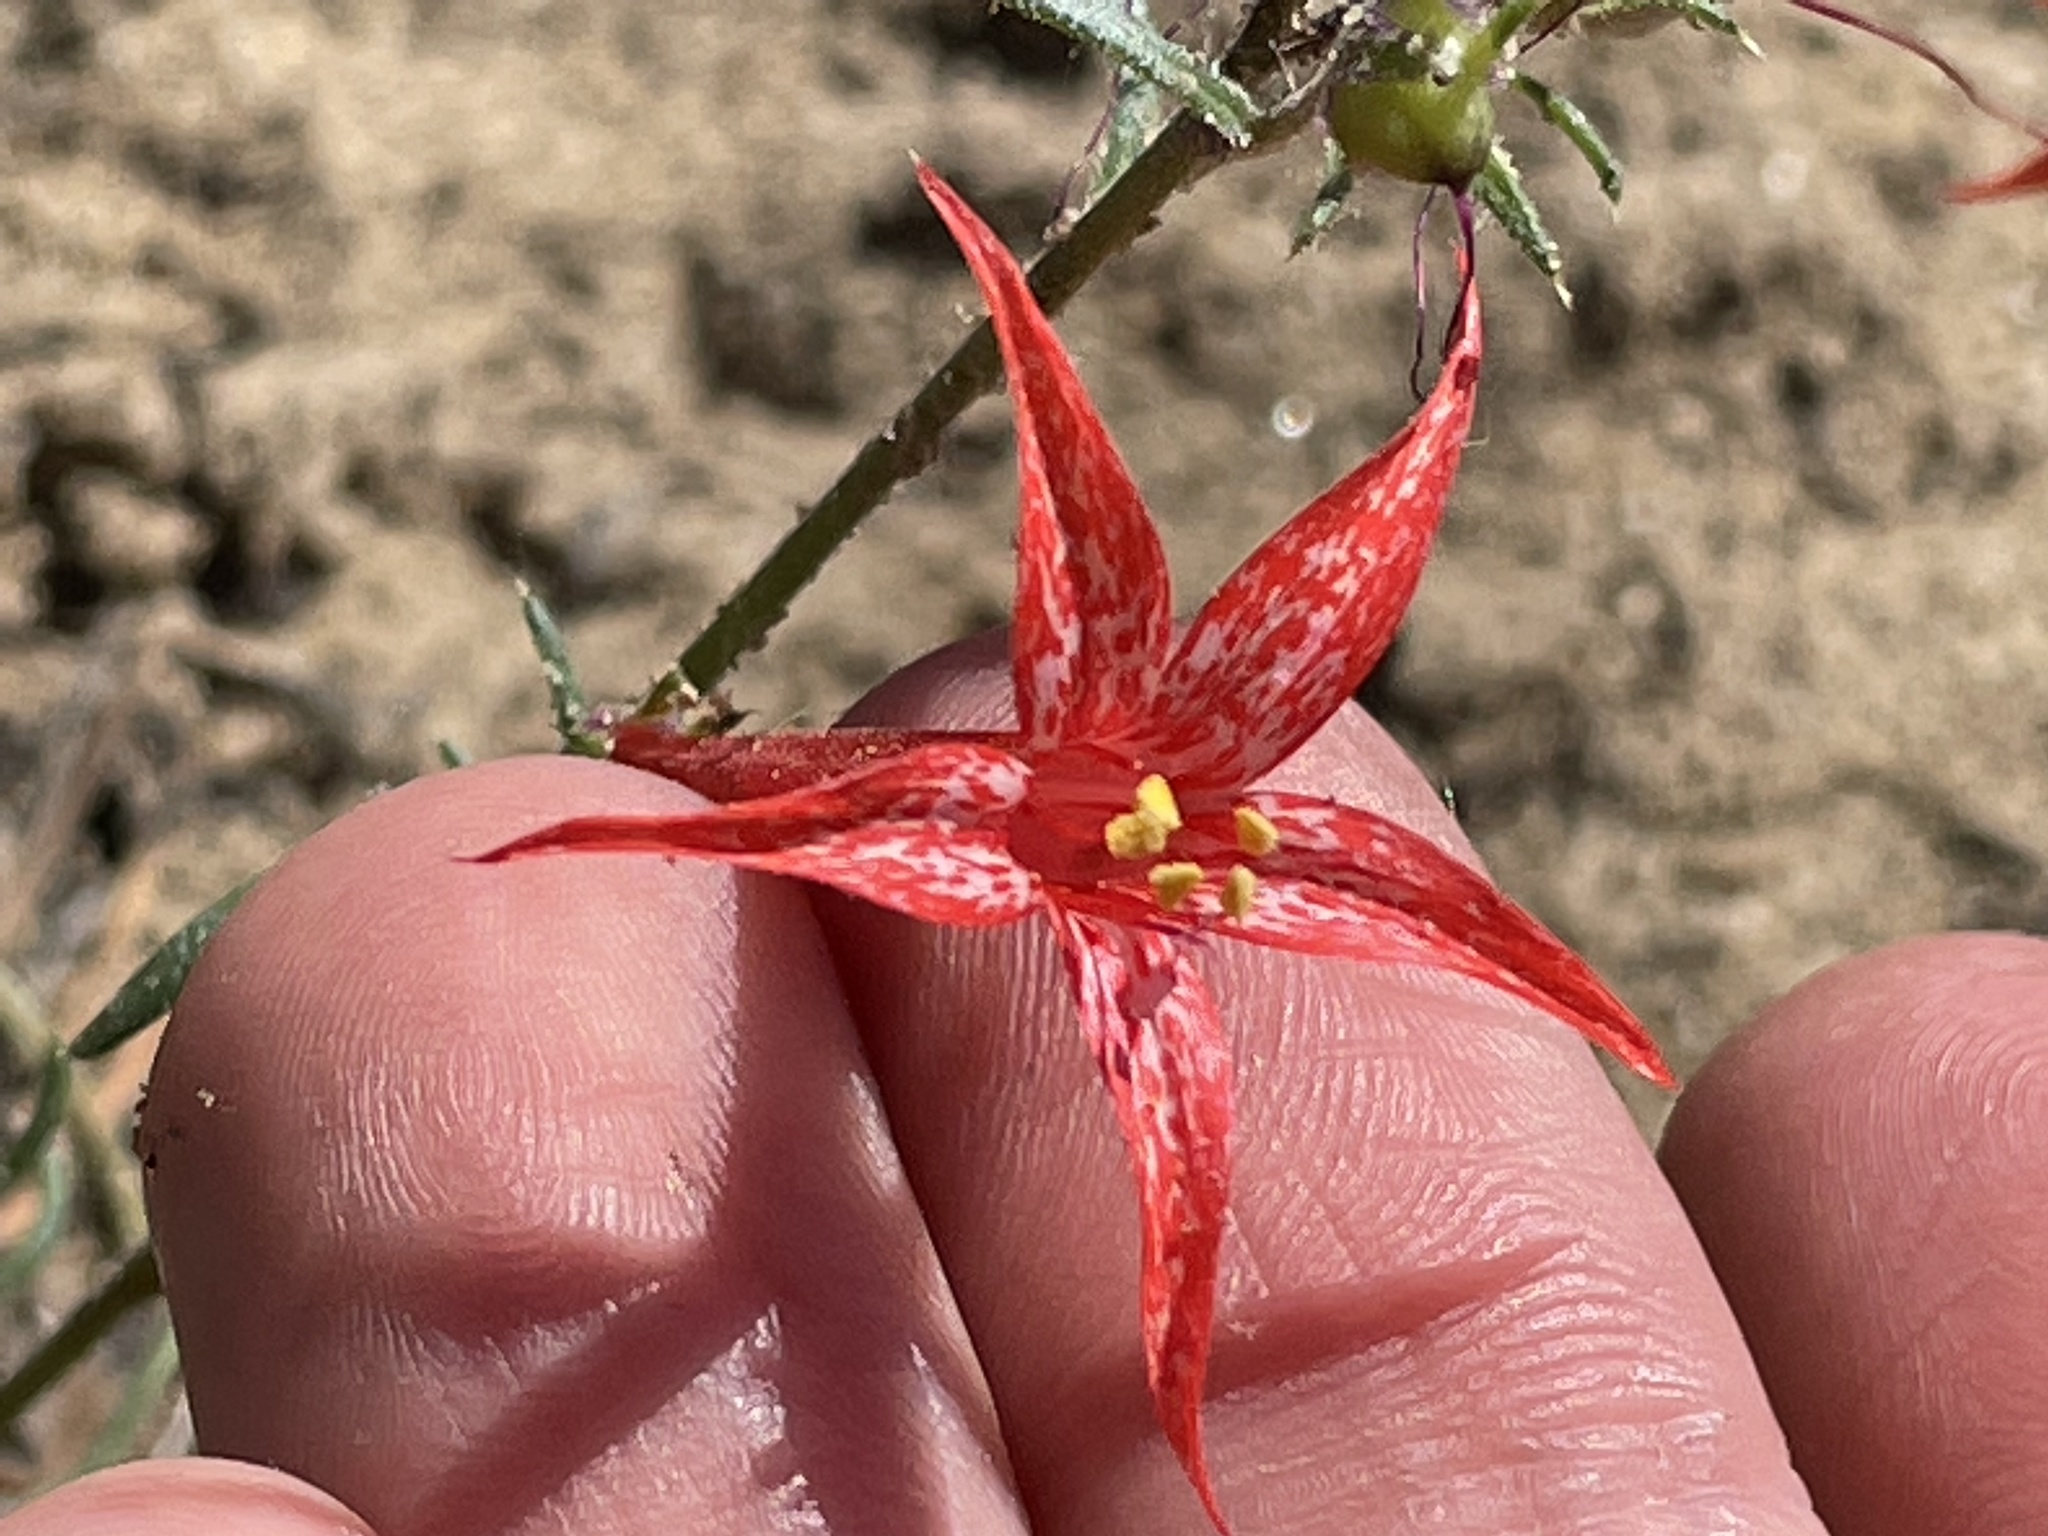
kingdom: Plantae
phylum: Tracheophyta
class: Magnoliopsida
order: Ericales
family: Polemoniaceae
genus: Ipomopsis
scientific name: Ipomopsis aggregata
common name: Scarlet gilia
